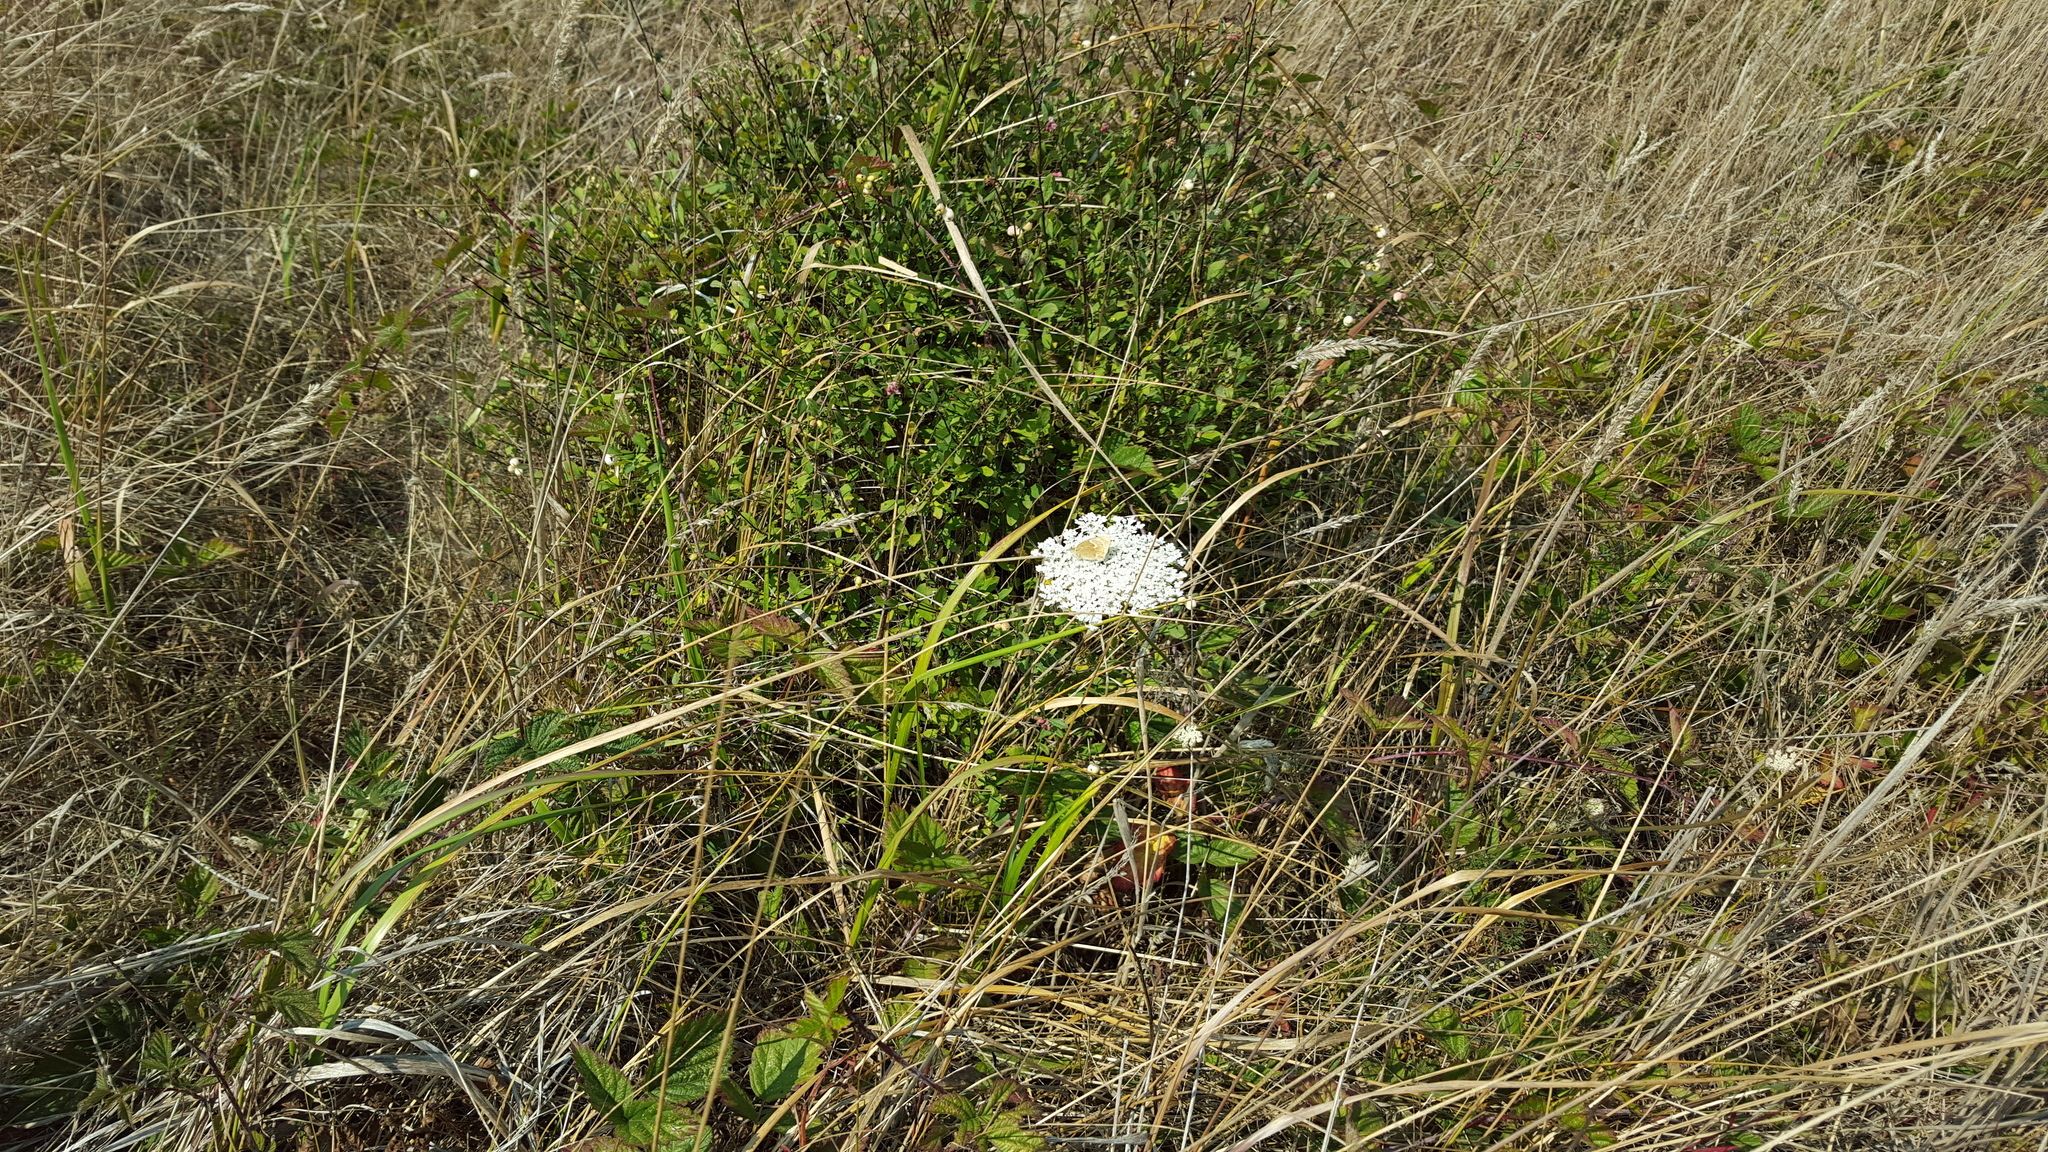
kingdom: Plantae
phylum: Tracheophyta
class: Magnoliopsida
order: Apiales
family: Apiaceae
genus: Daucus
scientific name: Daucus carota
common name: Wild carrot
